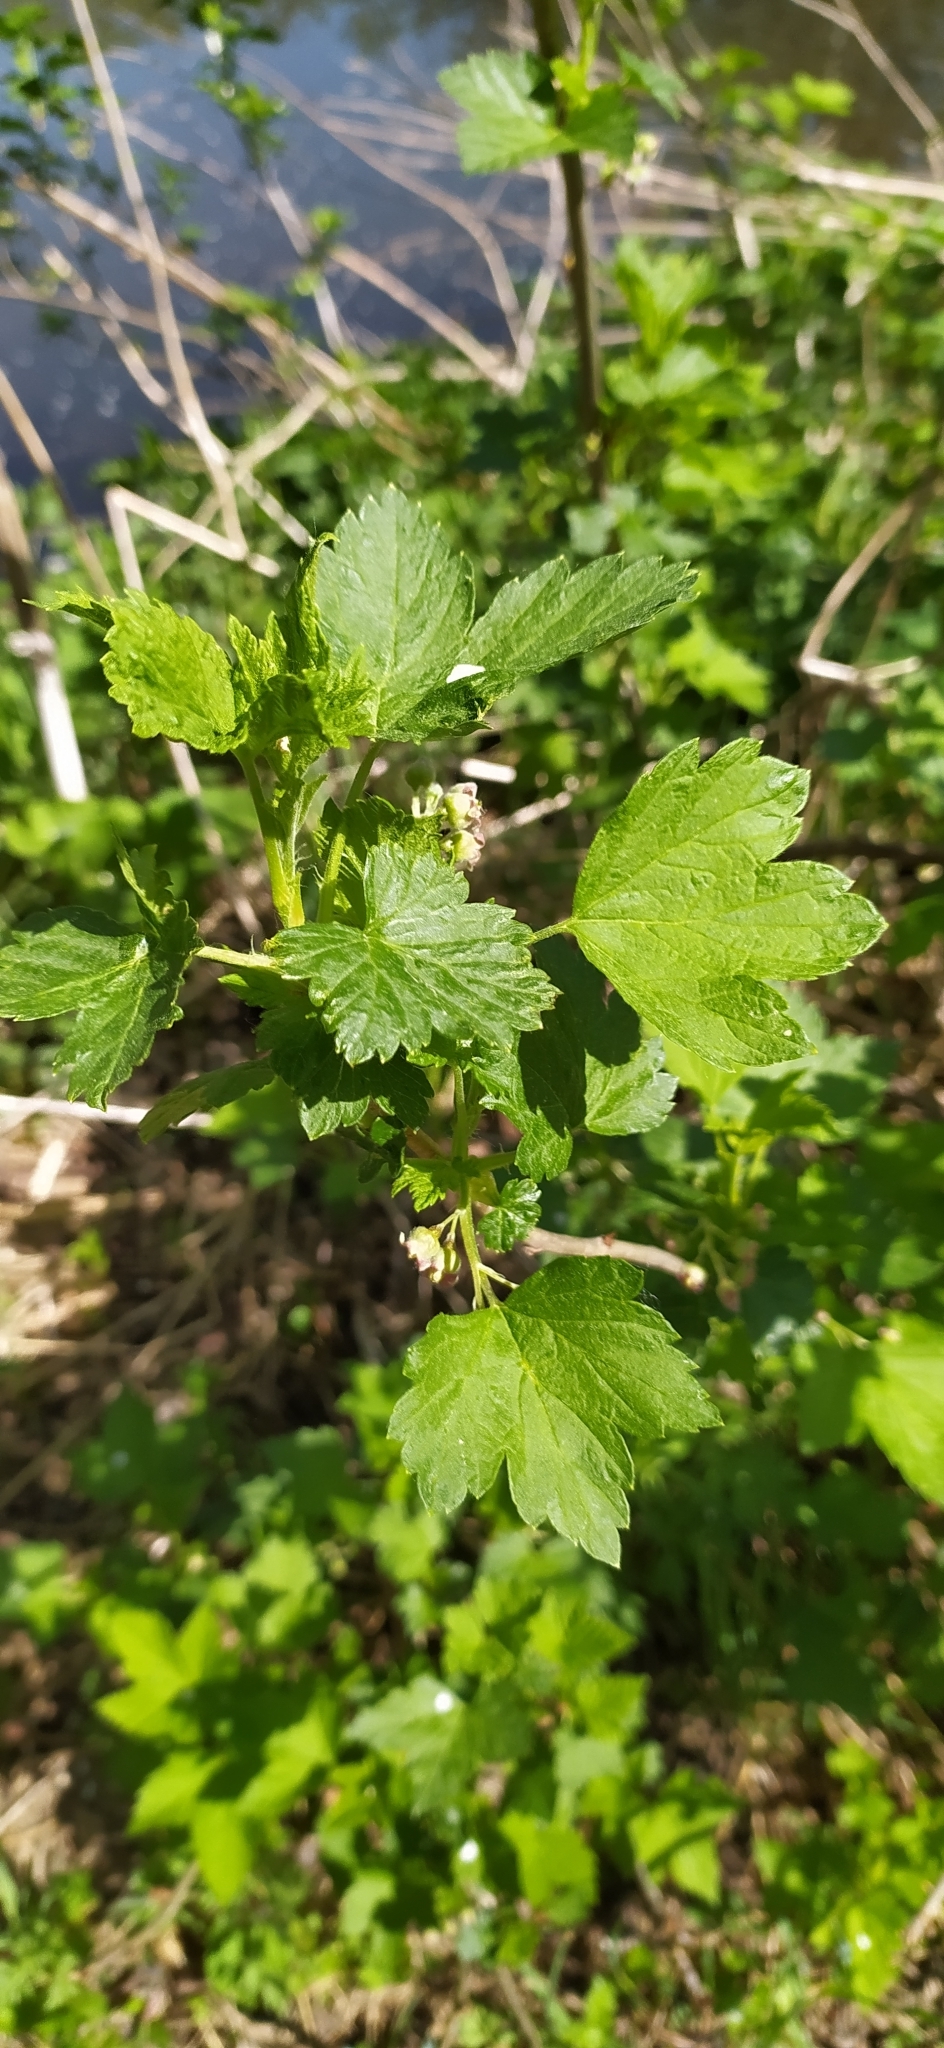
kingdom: Plantae
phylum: Tracheophyta
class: Magnoliopsida
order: Saxifragales
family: Grossulariaceae
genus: Ribes
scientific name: Ribes nigrum
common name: Black currant
